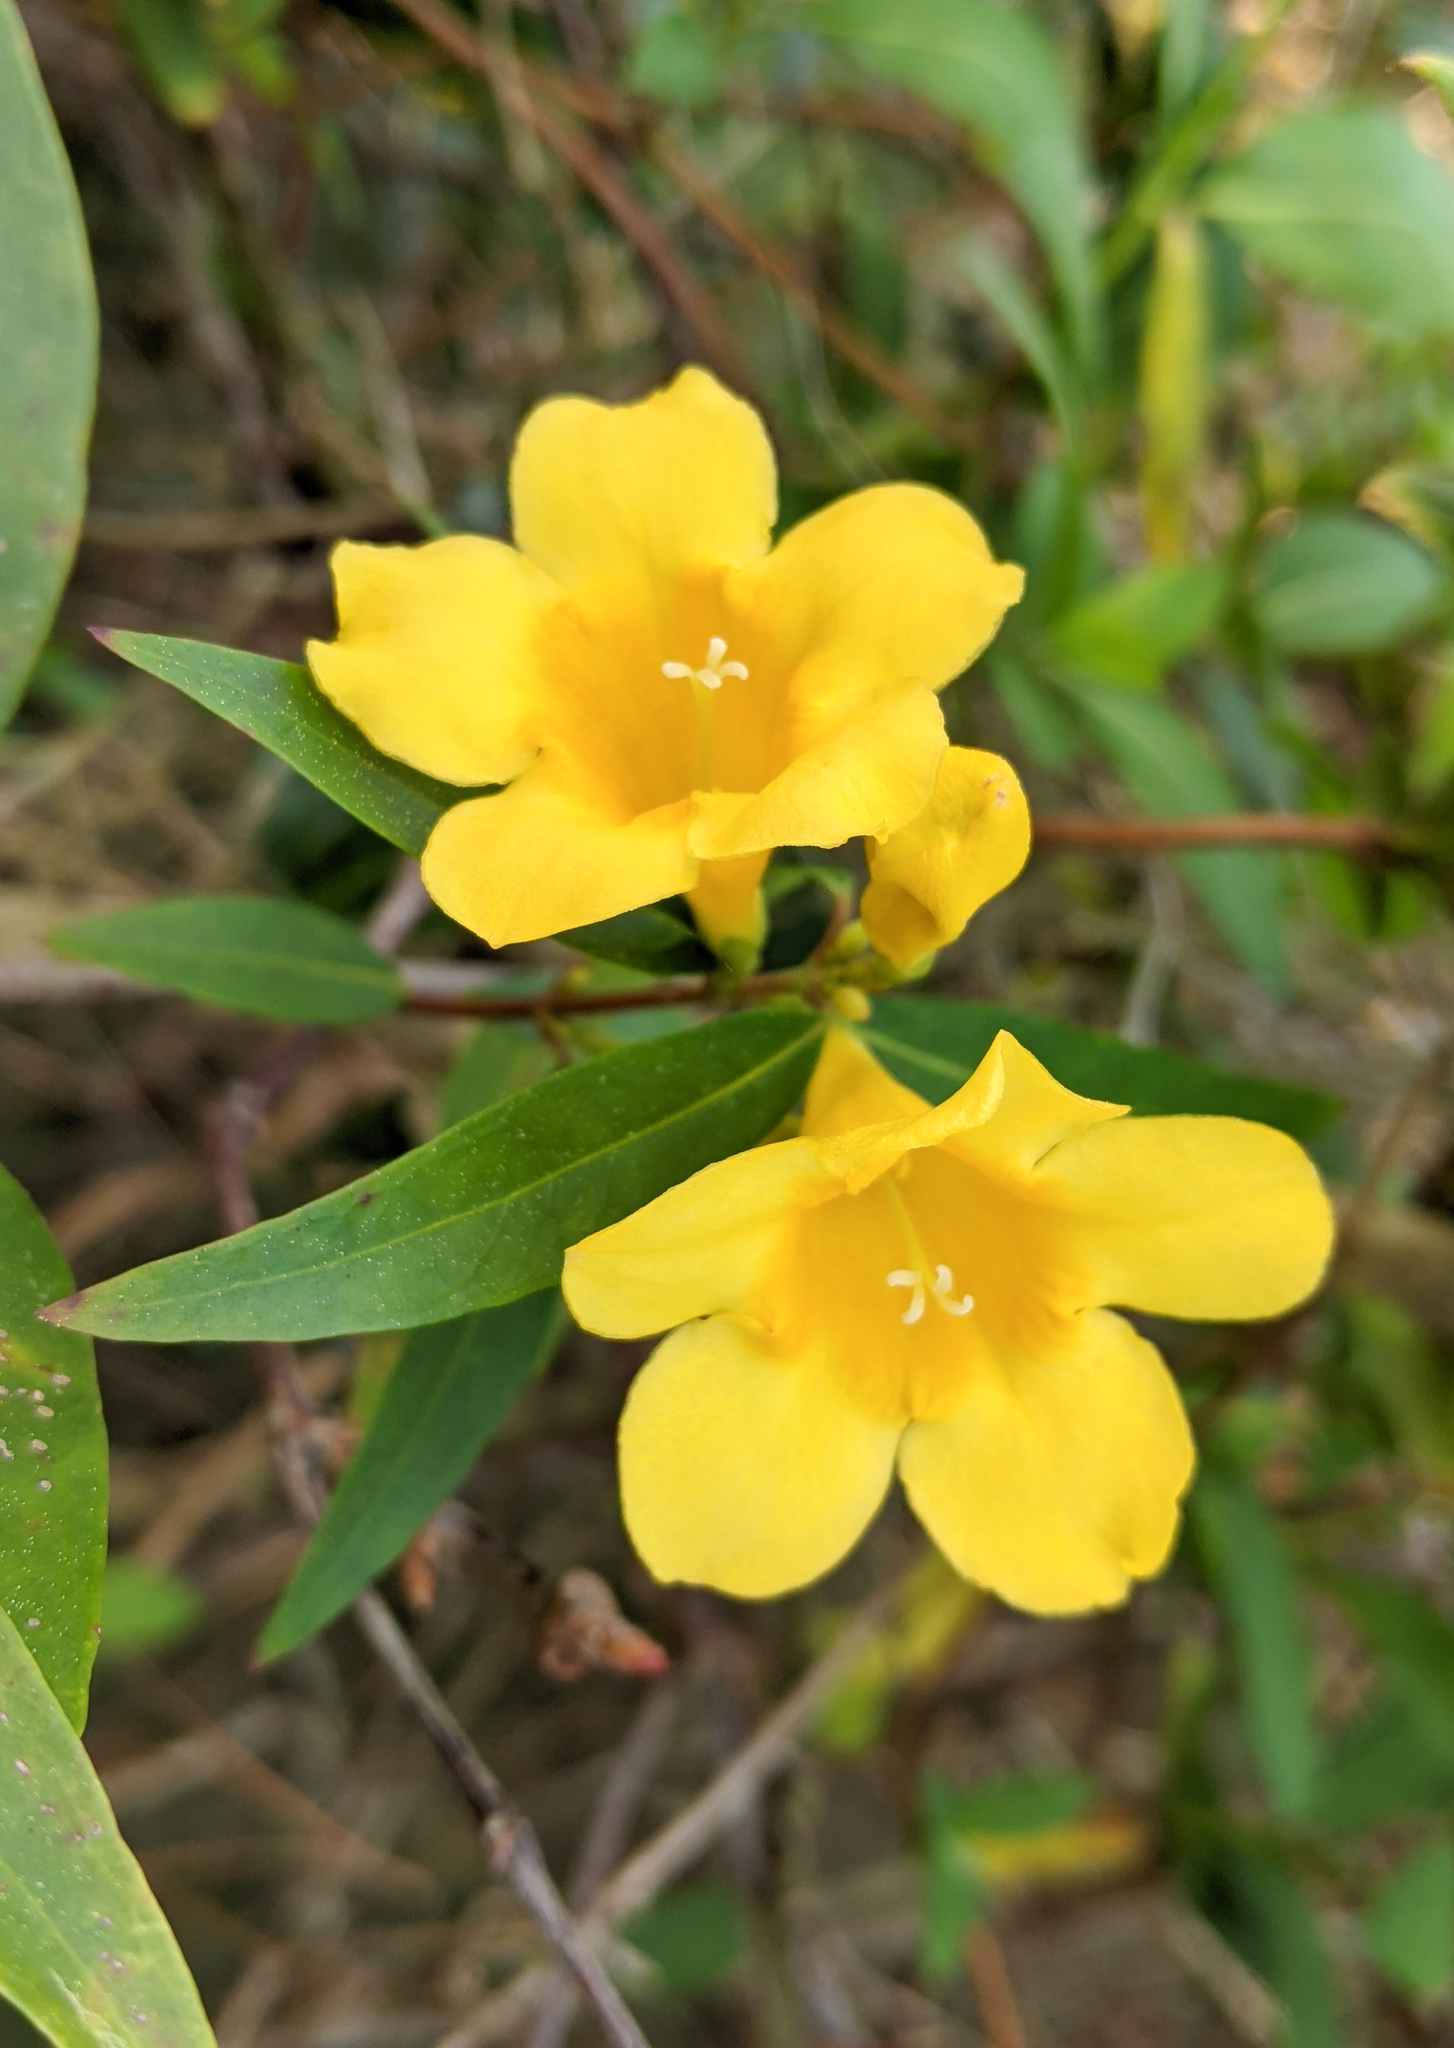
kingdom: Plantae
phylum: Tracheophyta
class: Magnoliopsida
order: Gentianales
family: Gelsemiaceae
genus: Gelsemium
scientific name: Gelsemium sempervirens
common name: Carolina-jasmine
